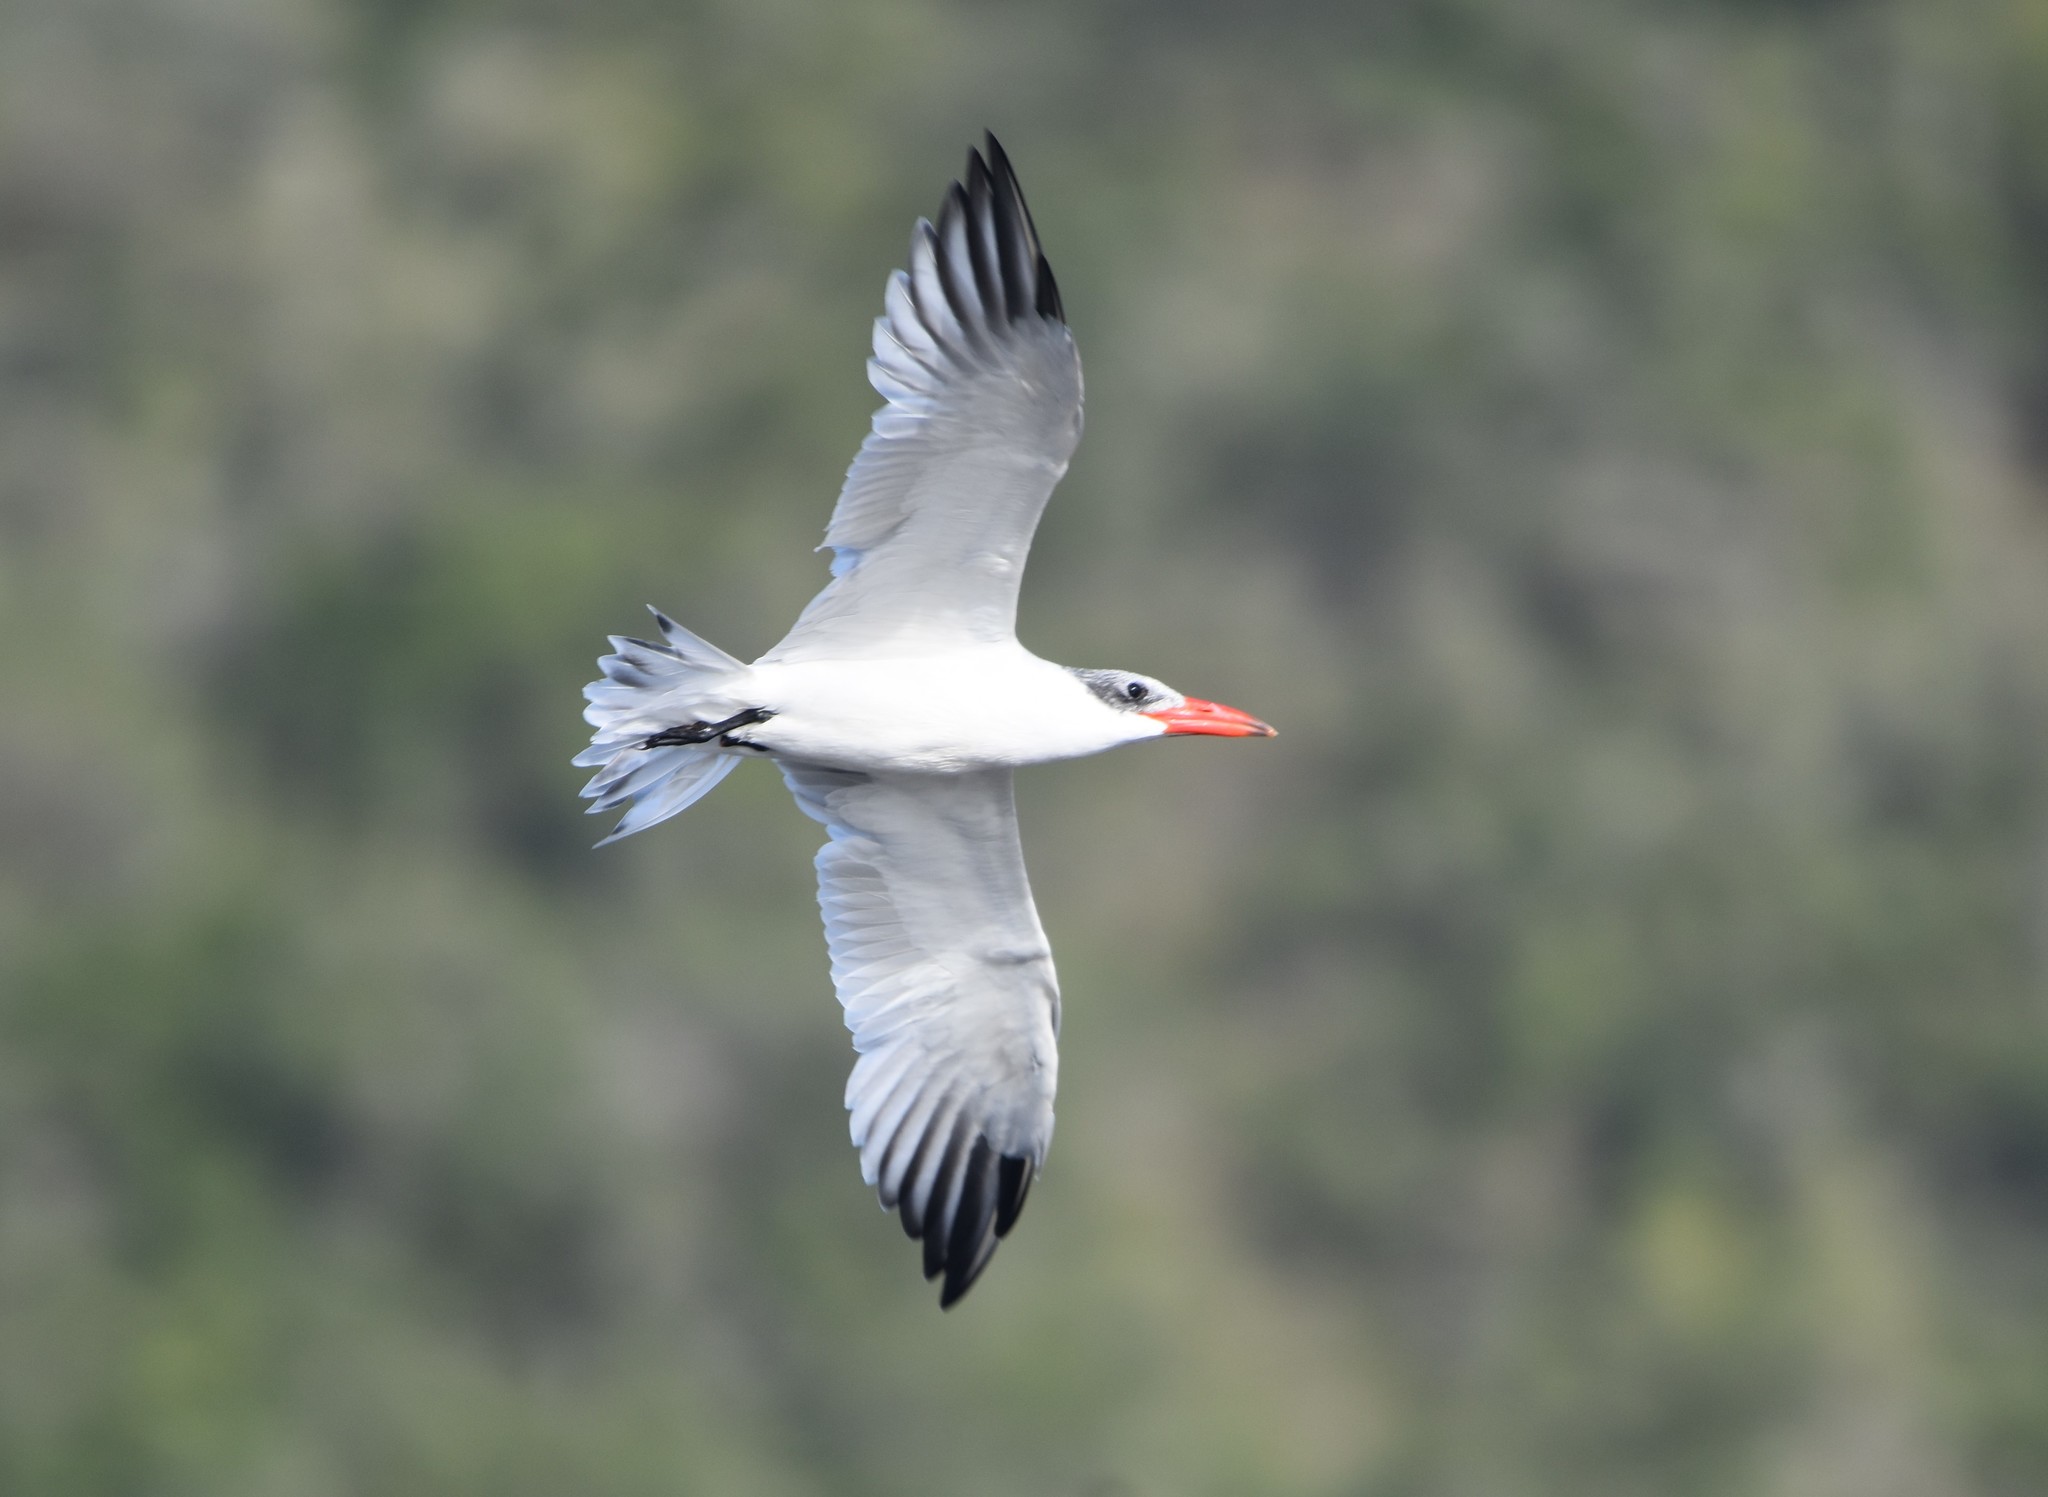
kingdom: Animalia
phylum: Chordata
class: Aves
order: Charadriiformes
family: Laridae
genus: Hydroprogne
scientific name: Hydroprogne caspia
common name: Caspian tern
